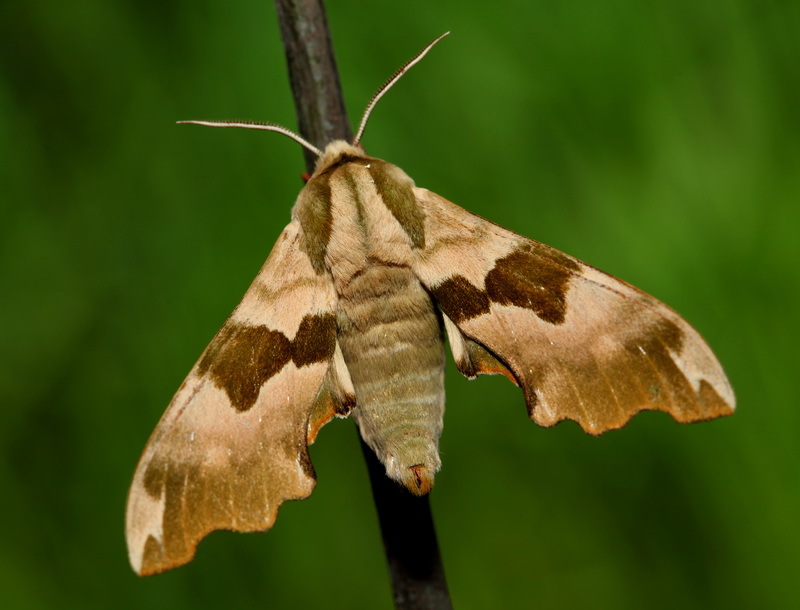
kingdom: Animalia
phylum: Arthropoda
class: Insecta
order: Lepidoptera
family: Sphingidae
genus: Mimas
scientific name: Mimas tiliae
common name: Lime hawk-moth
